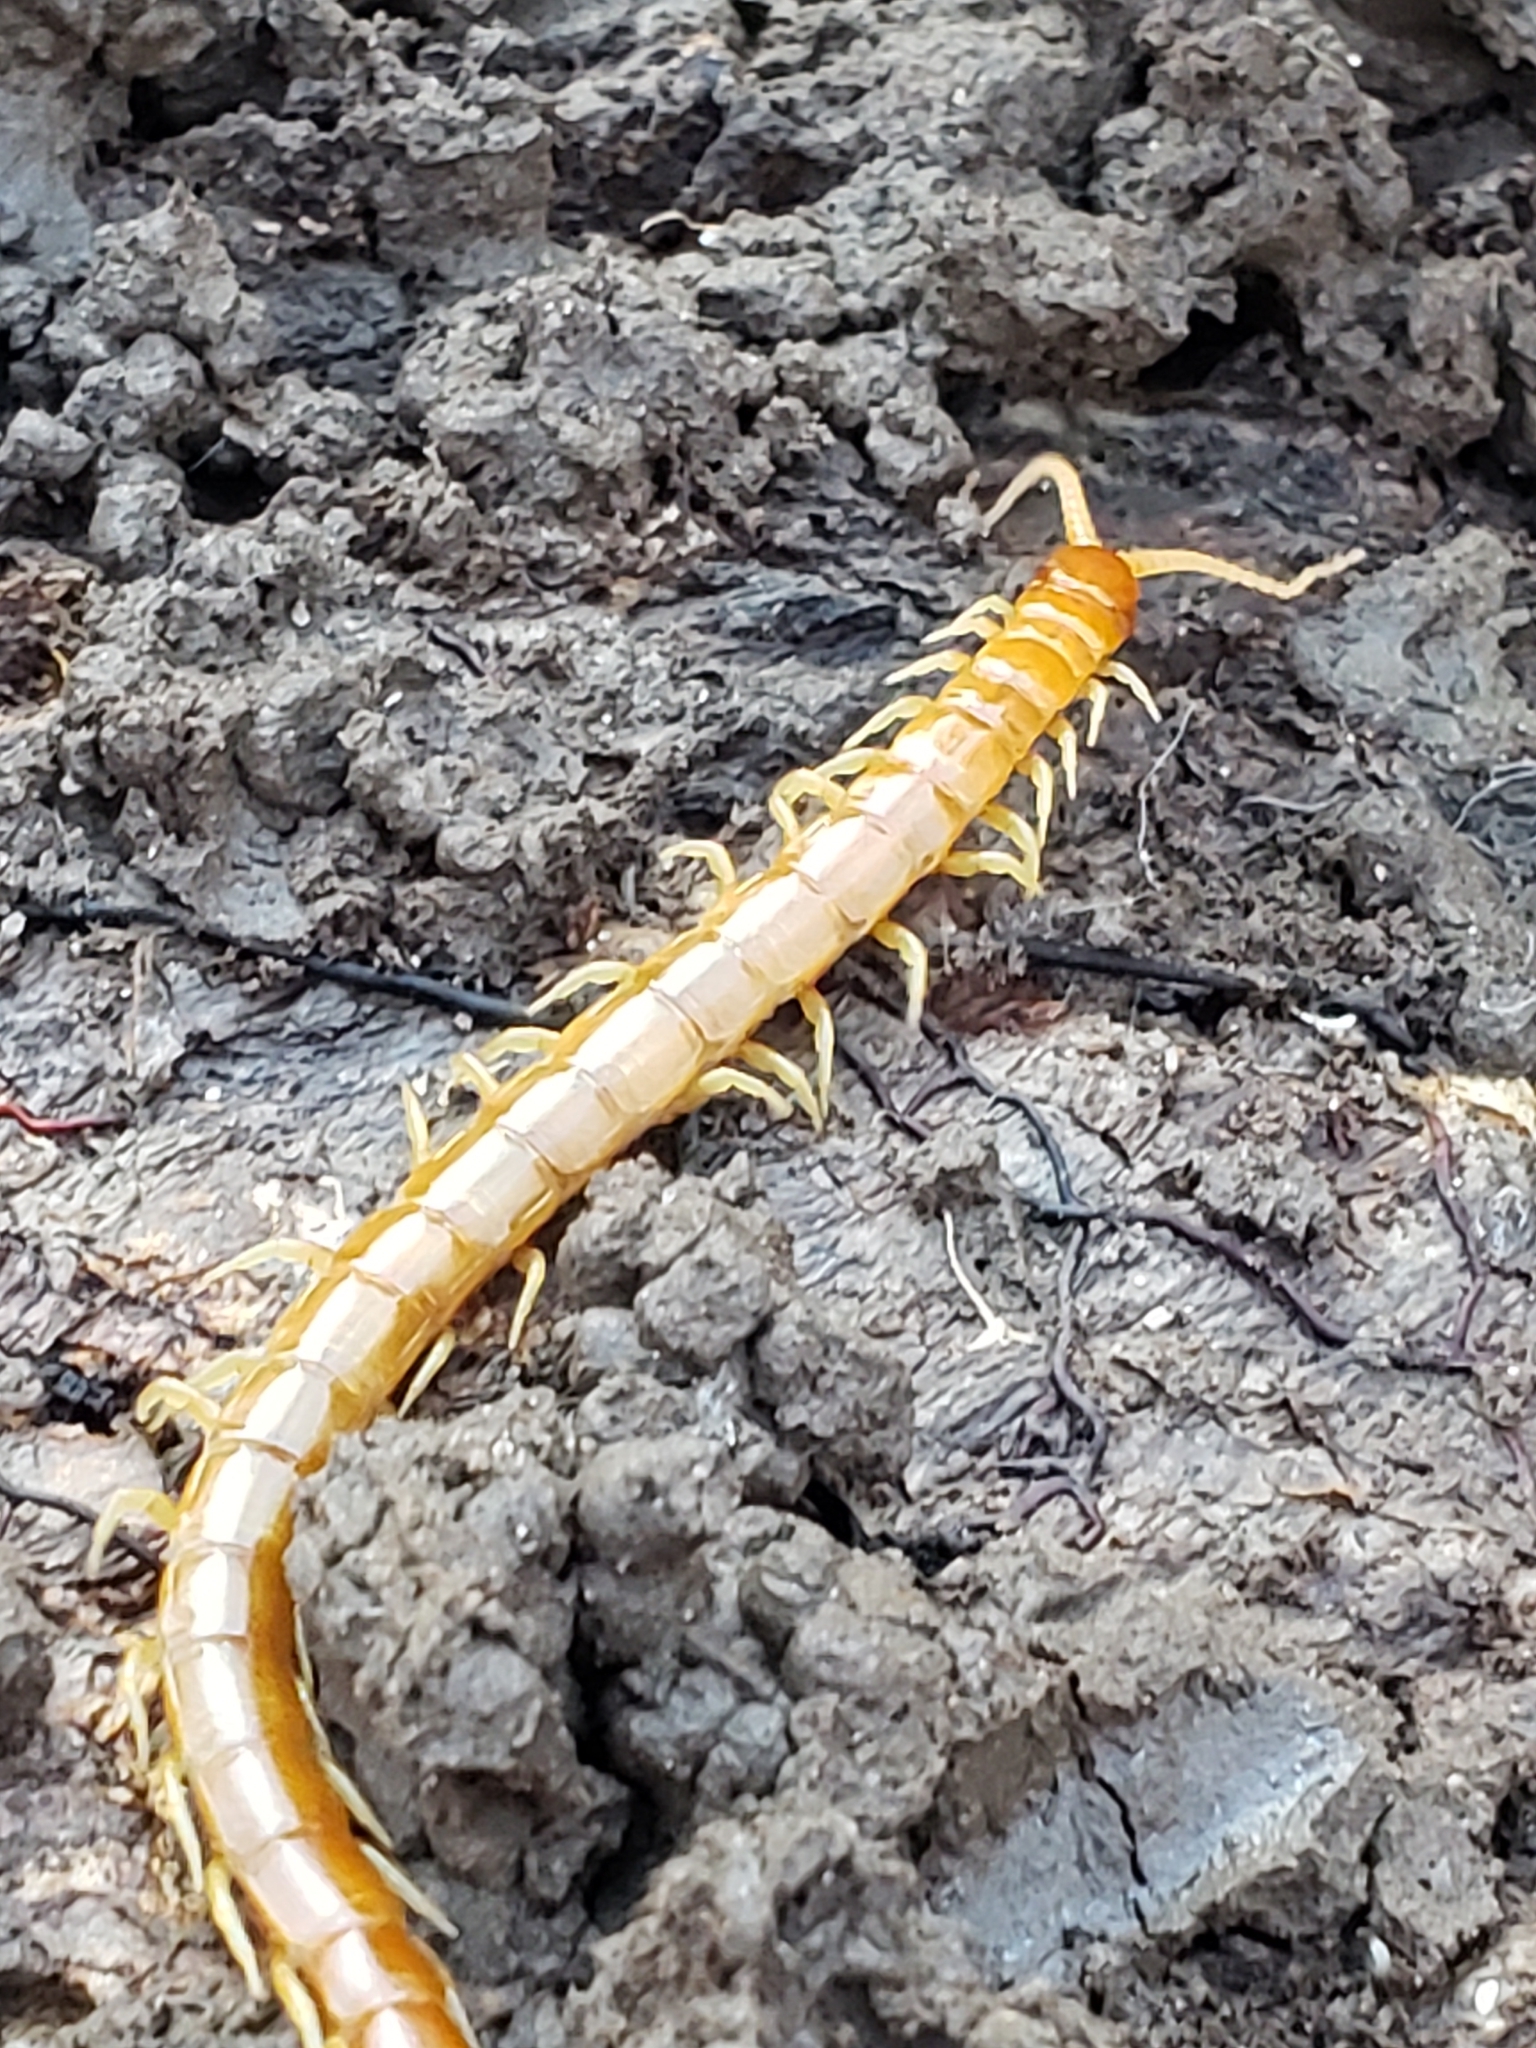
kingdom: Animalia
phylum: Arthropoda
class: Chilopoda
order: Scolopendromorpha
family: Scolopocryptopidae
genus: Scolopocryptops
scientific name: Scolopocryptops peregrinator
